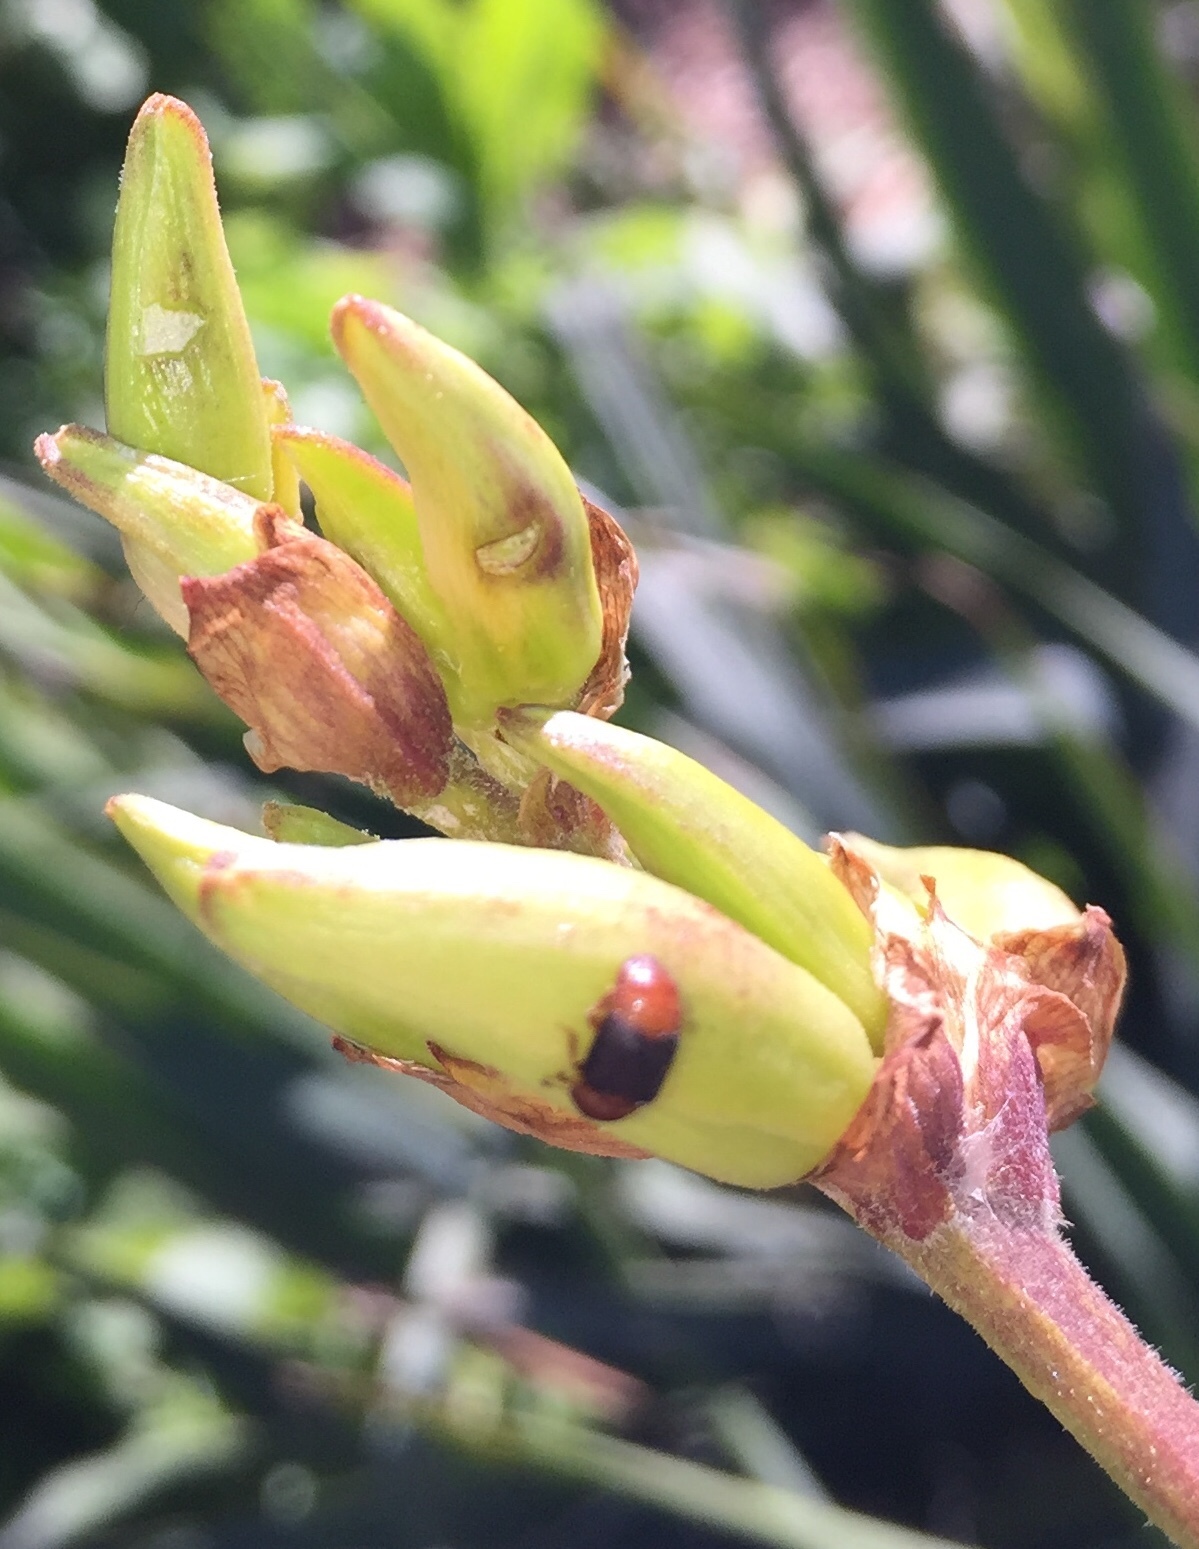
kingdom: Animalia
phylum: Arthropoda
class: Insecta
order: Coleoptera
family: Nitidulidae
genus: Carpophilus
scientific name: Carpophilus
